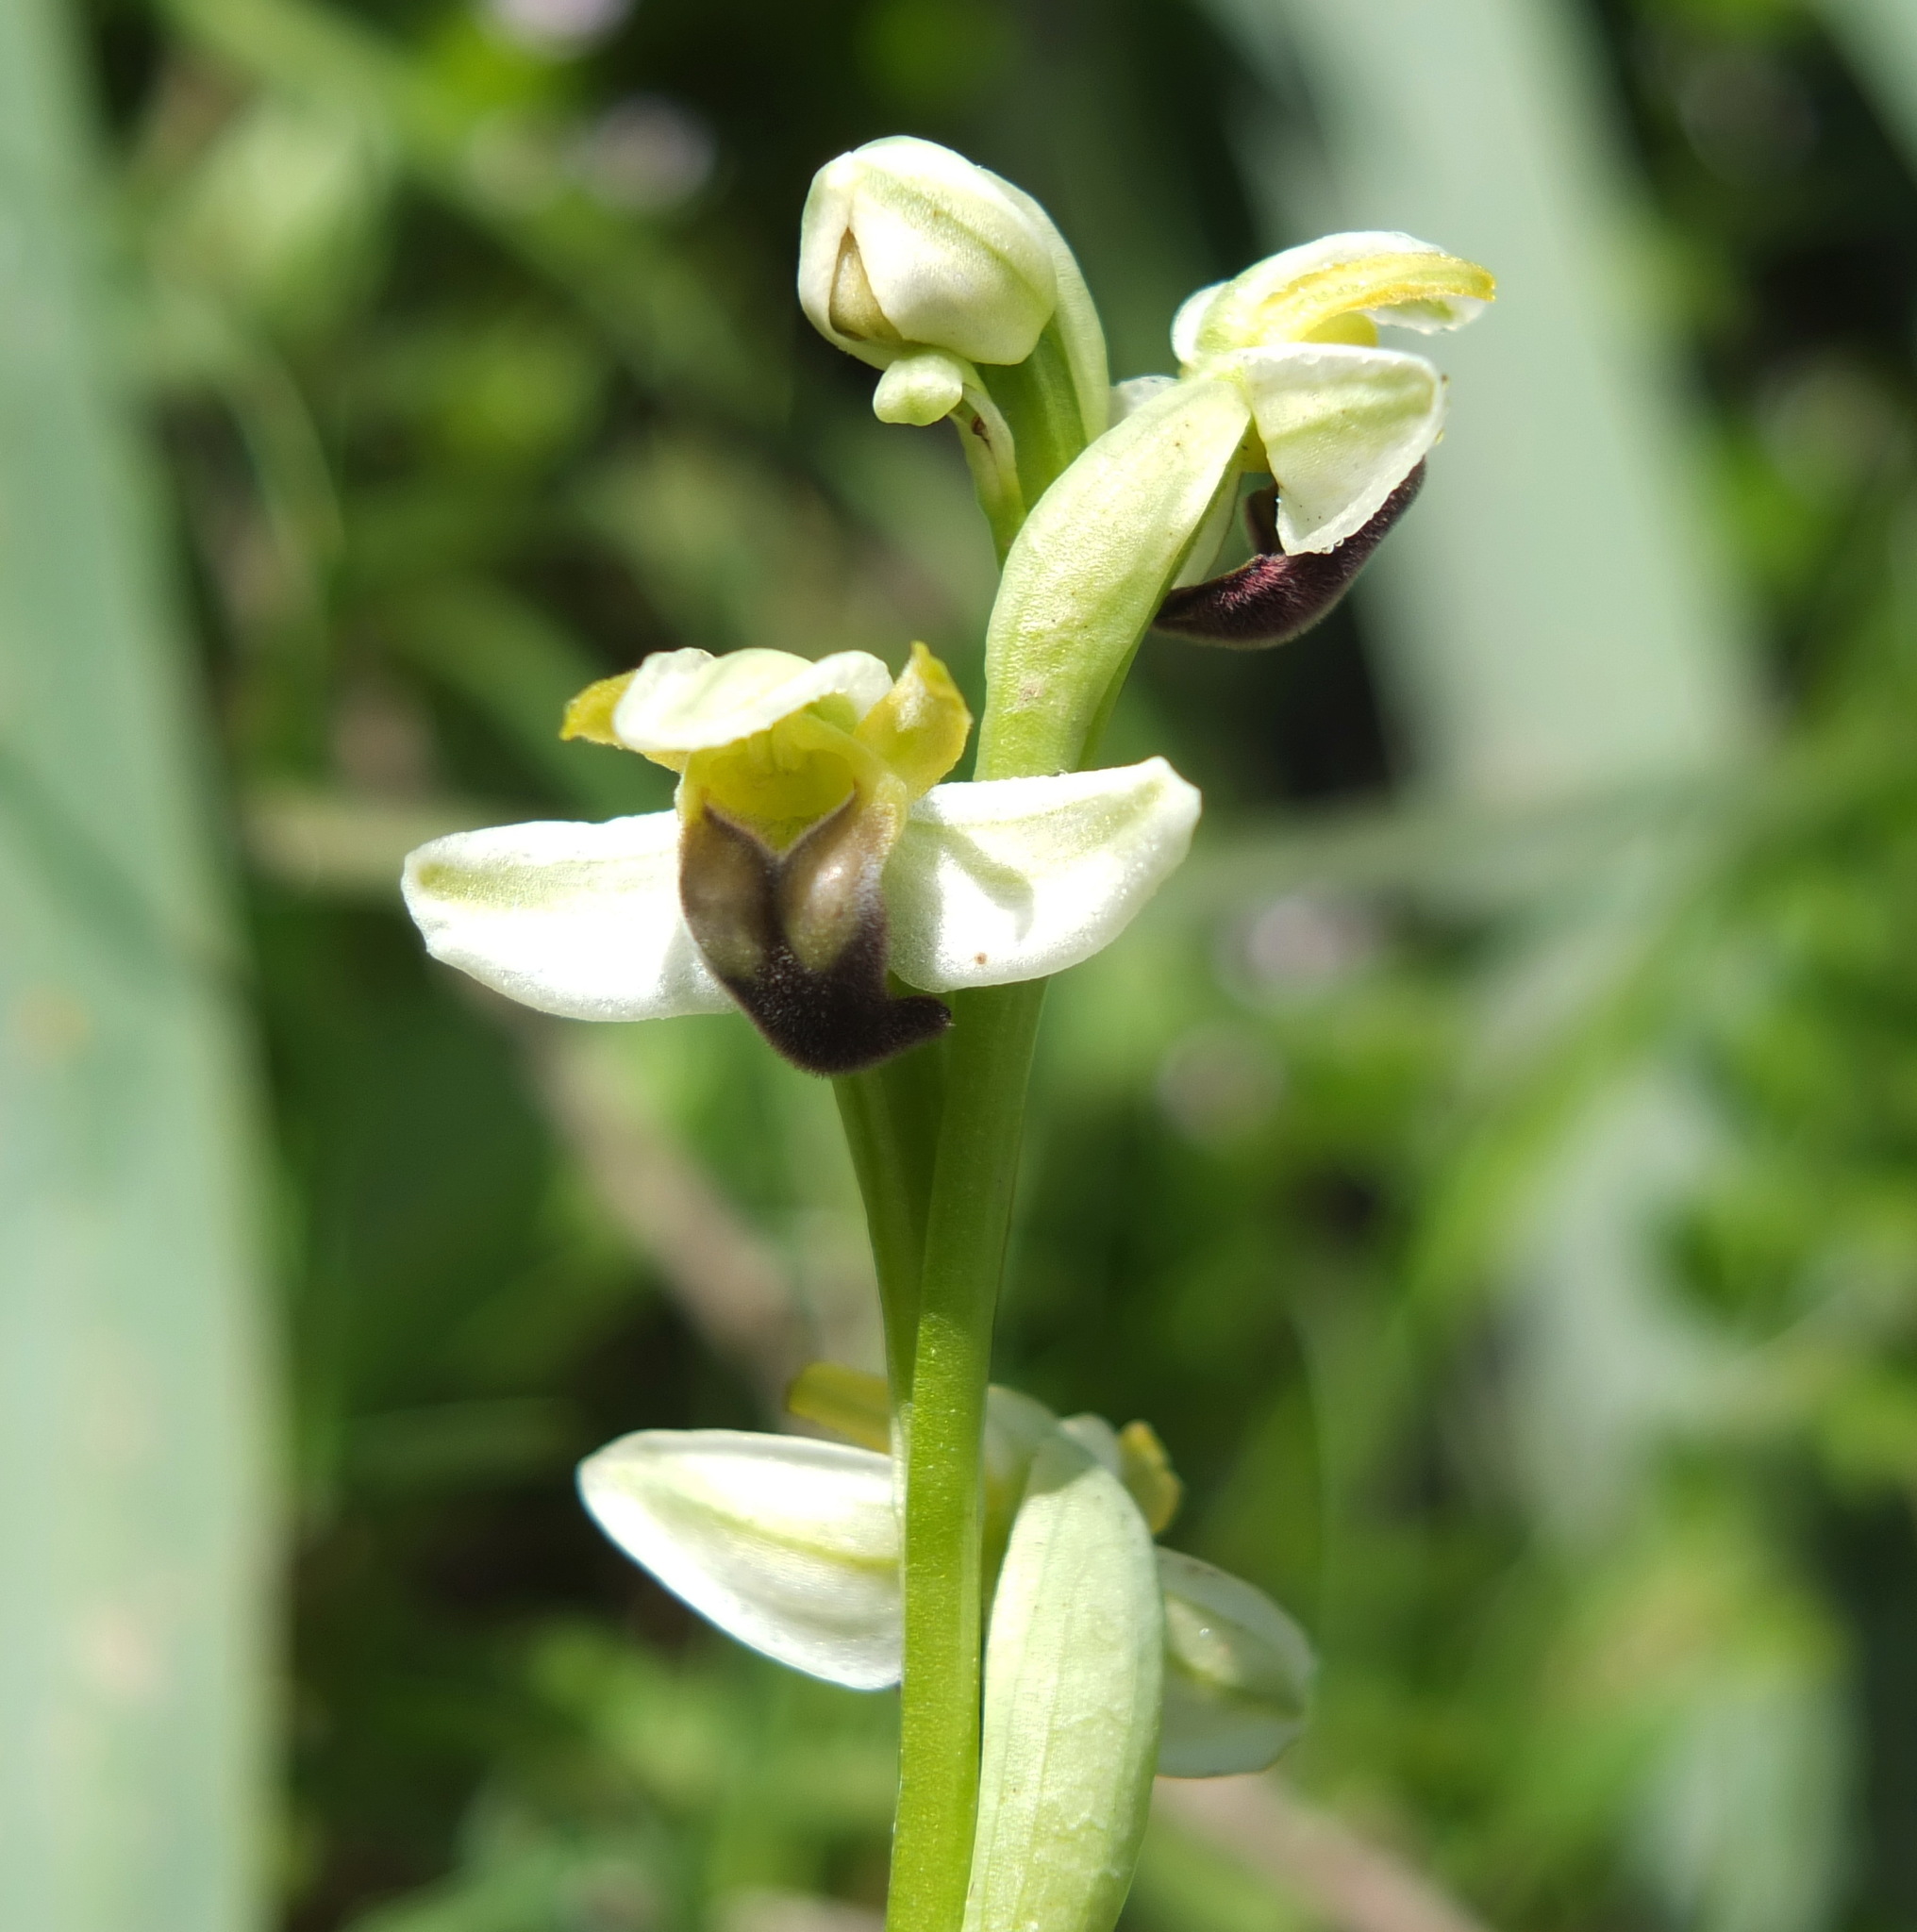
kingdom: Plantae
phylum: Tracheophyta
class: Liliopsida
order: Asparagales
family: Orchidaceae
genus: Ophrys
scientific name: Ophrys fusca
